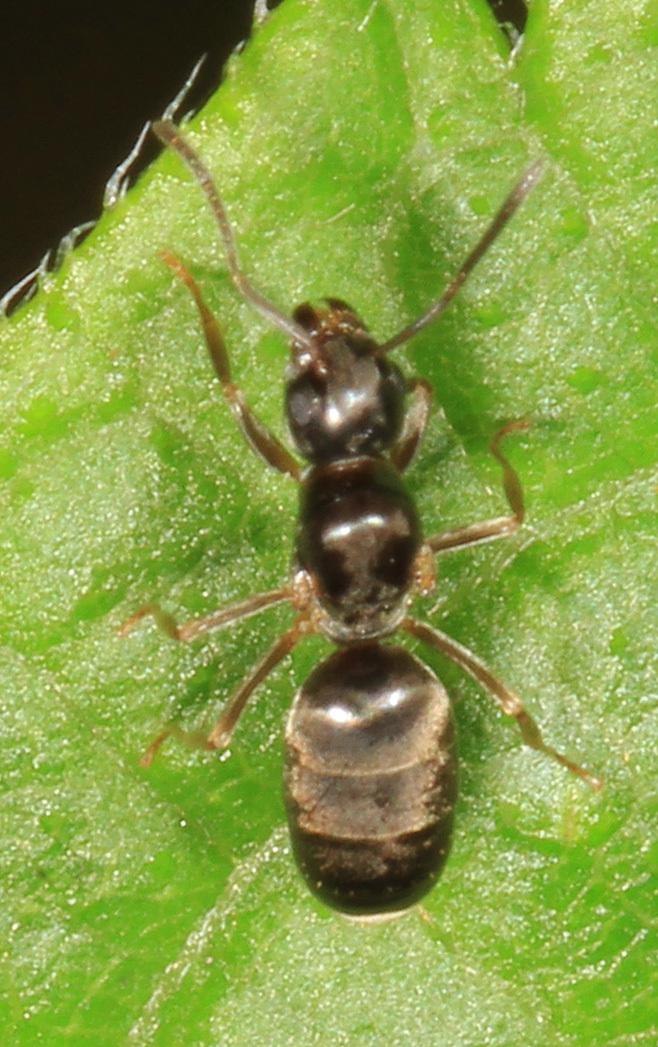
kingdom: Animalia
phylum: Arthropoda
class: Insecta
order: Hymenoptera
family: Formicidae
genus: Tapinoma
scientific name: Tapinoma sessile
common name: Odorous house ant
